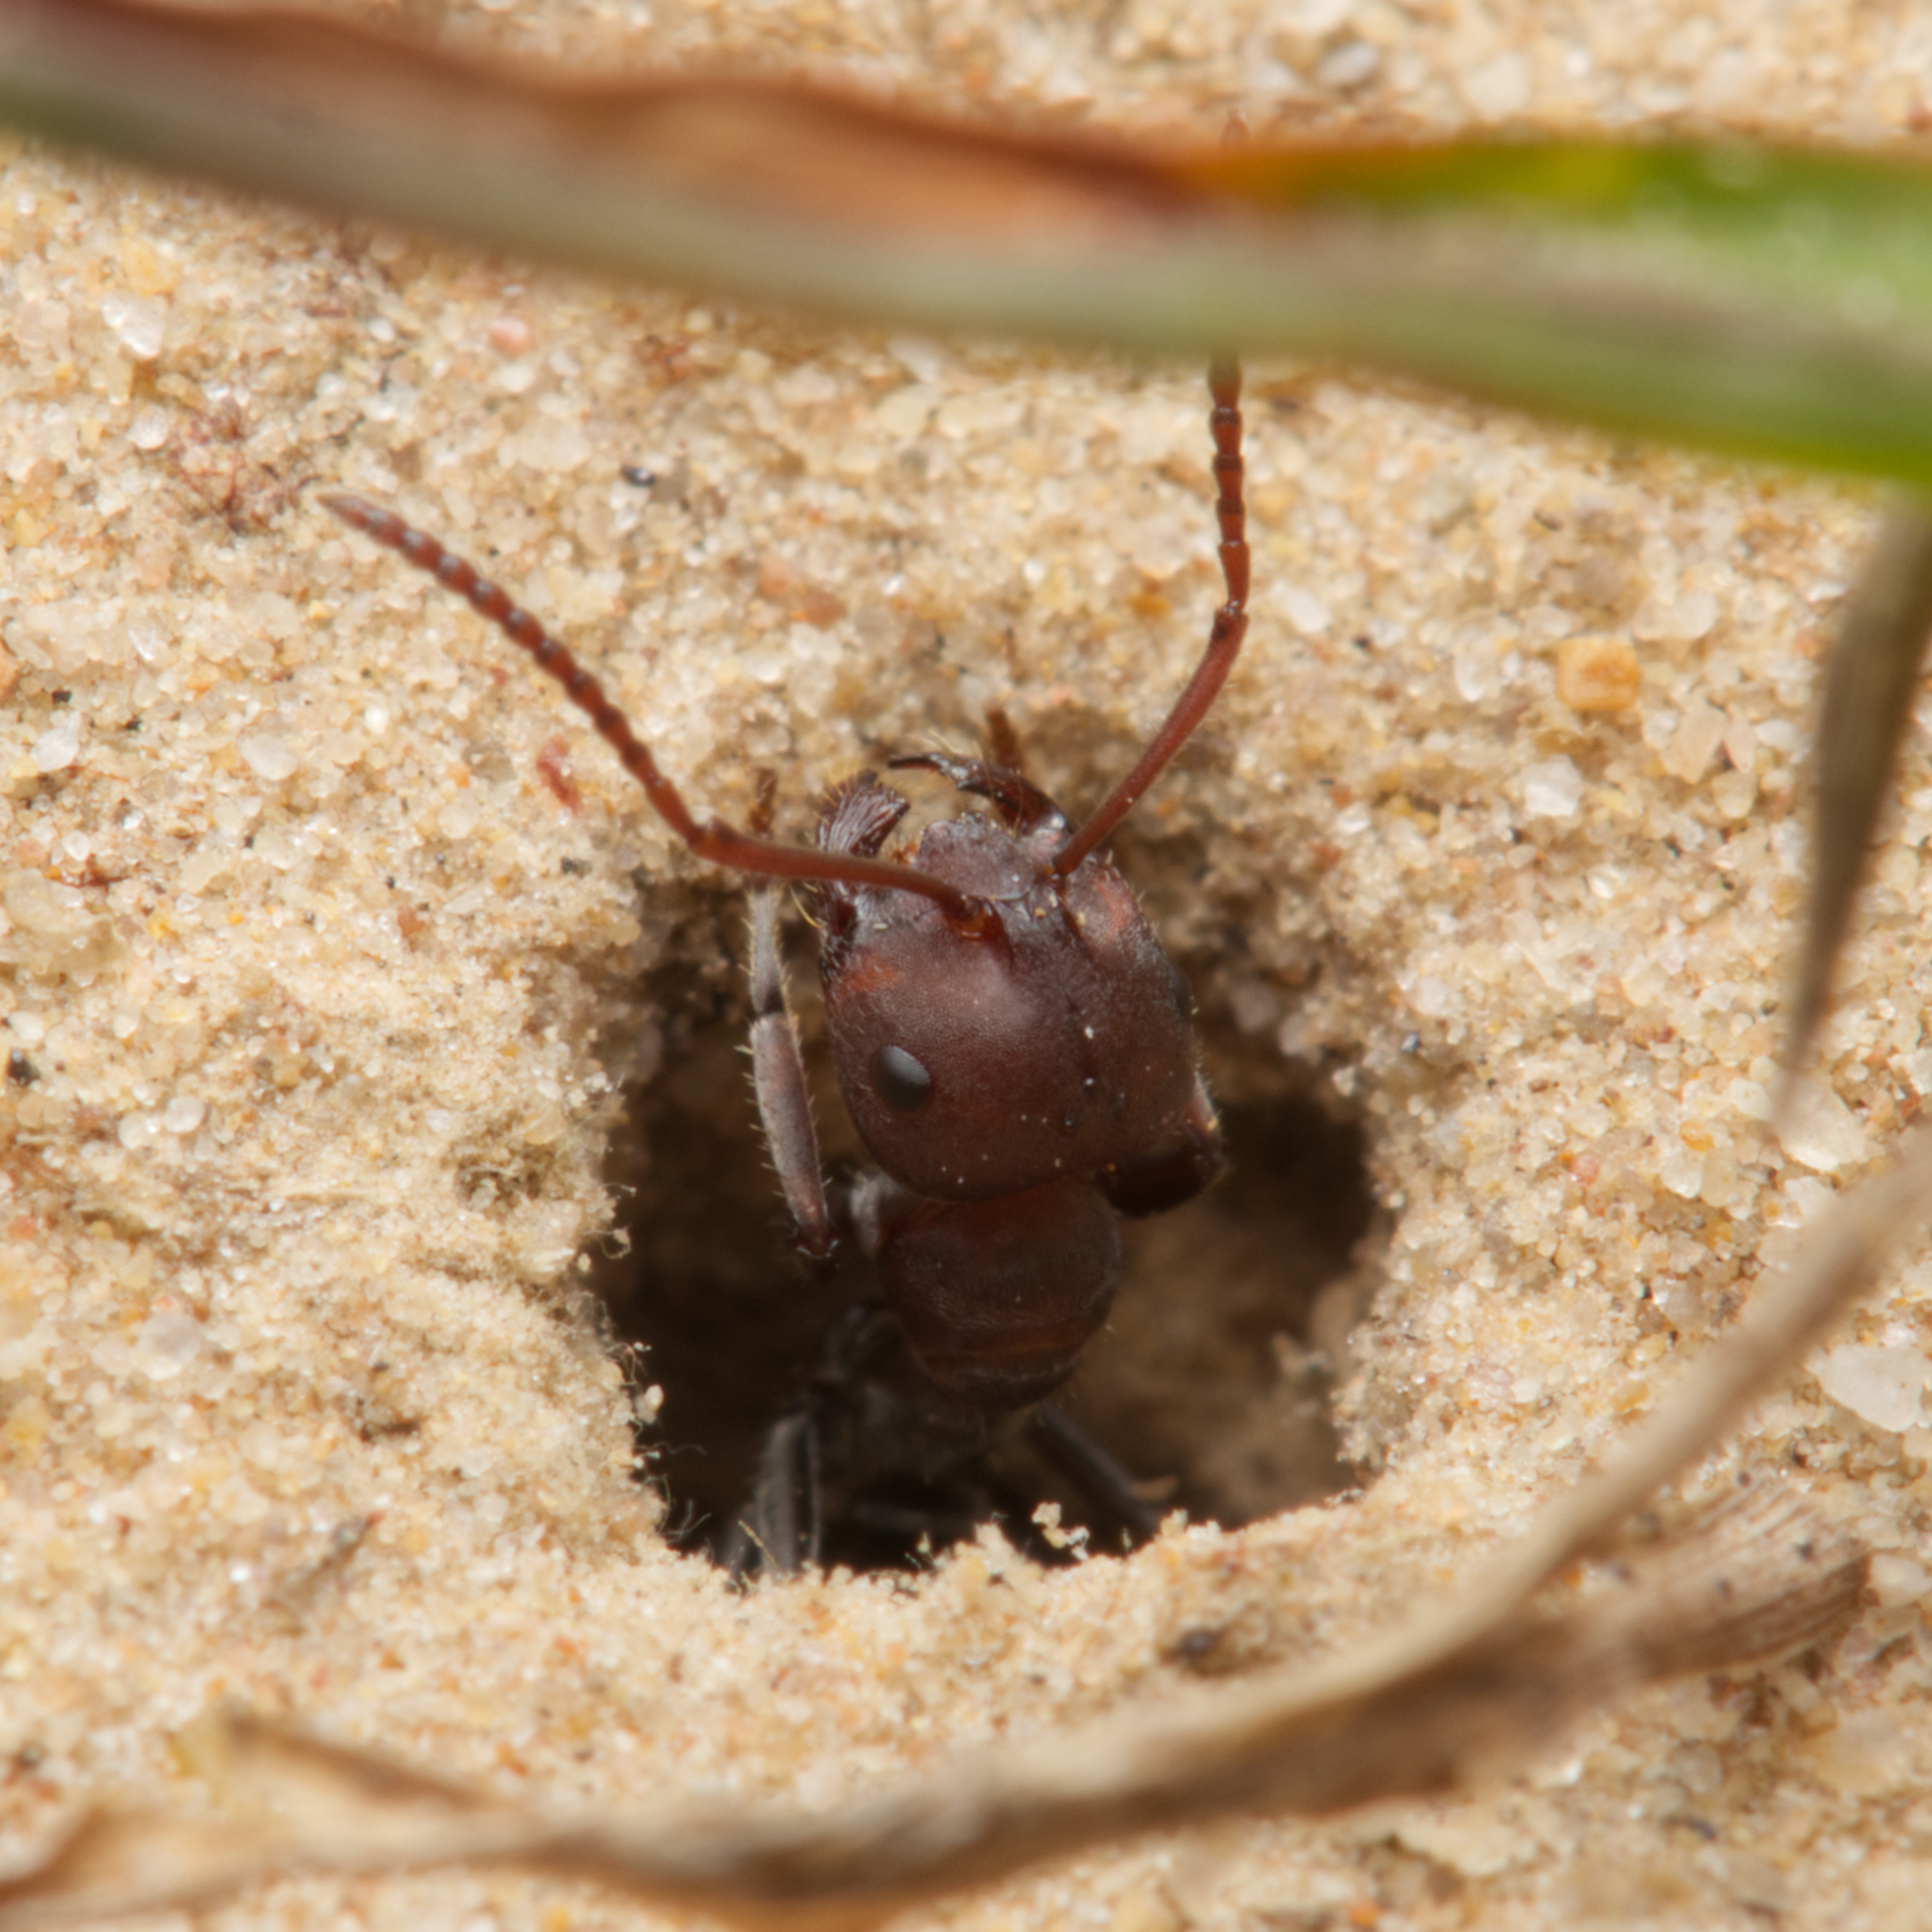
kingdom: Animalia
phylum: Arthropoda
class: Insecta
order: Hymenoptera
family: Formicidae
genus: Melophorus
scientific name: Melophorus gibbosus
